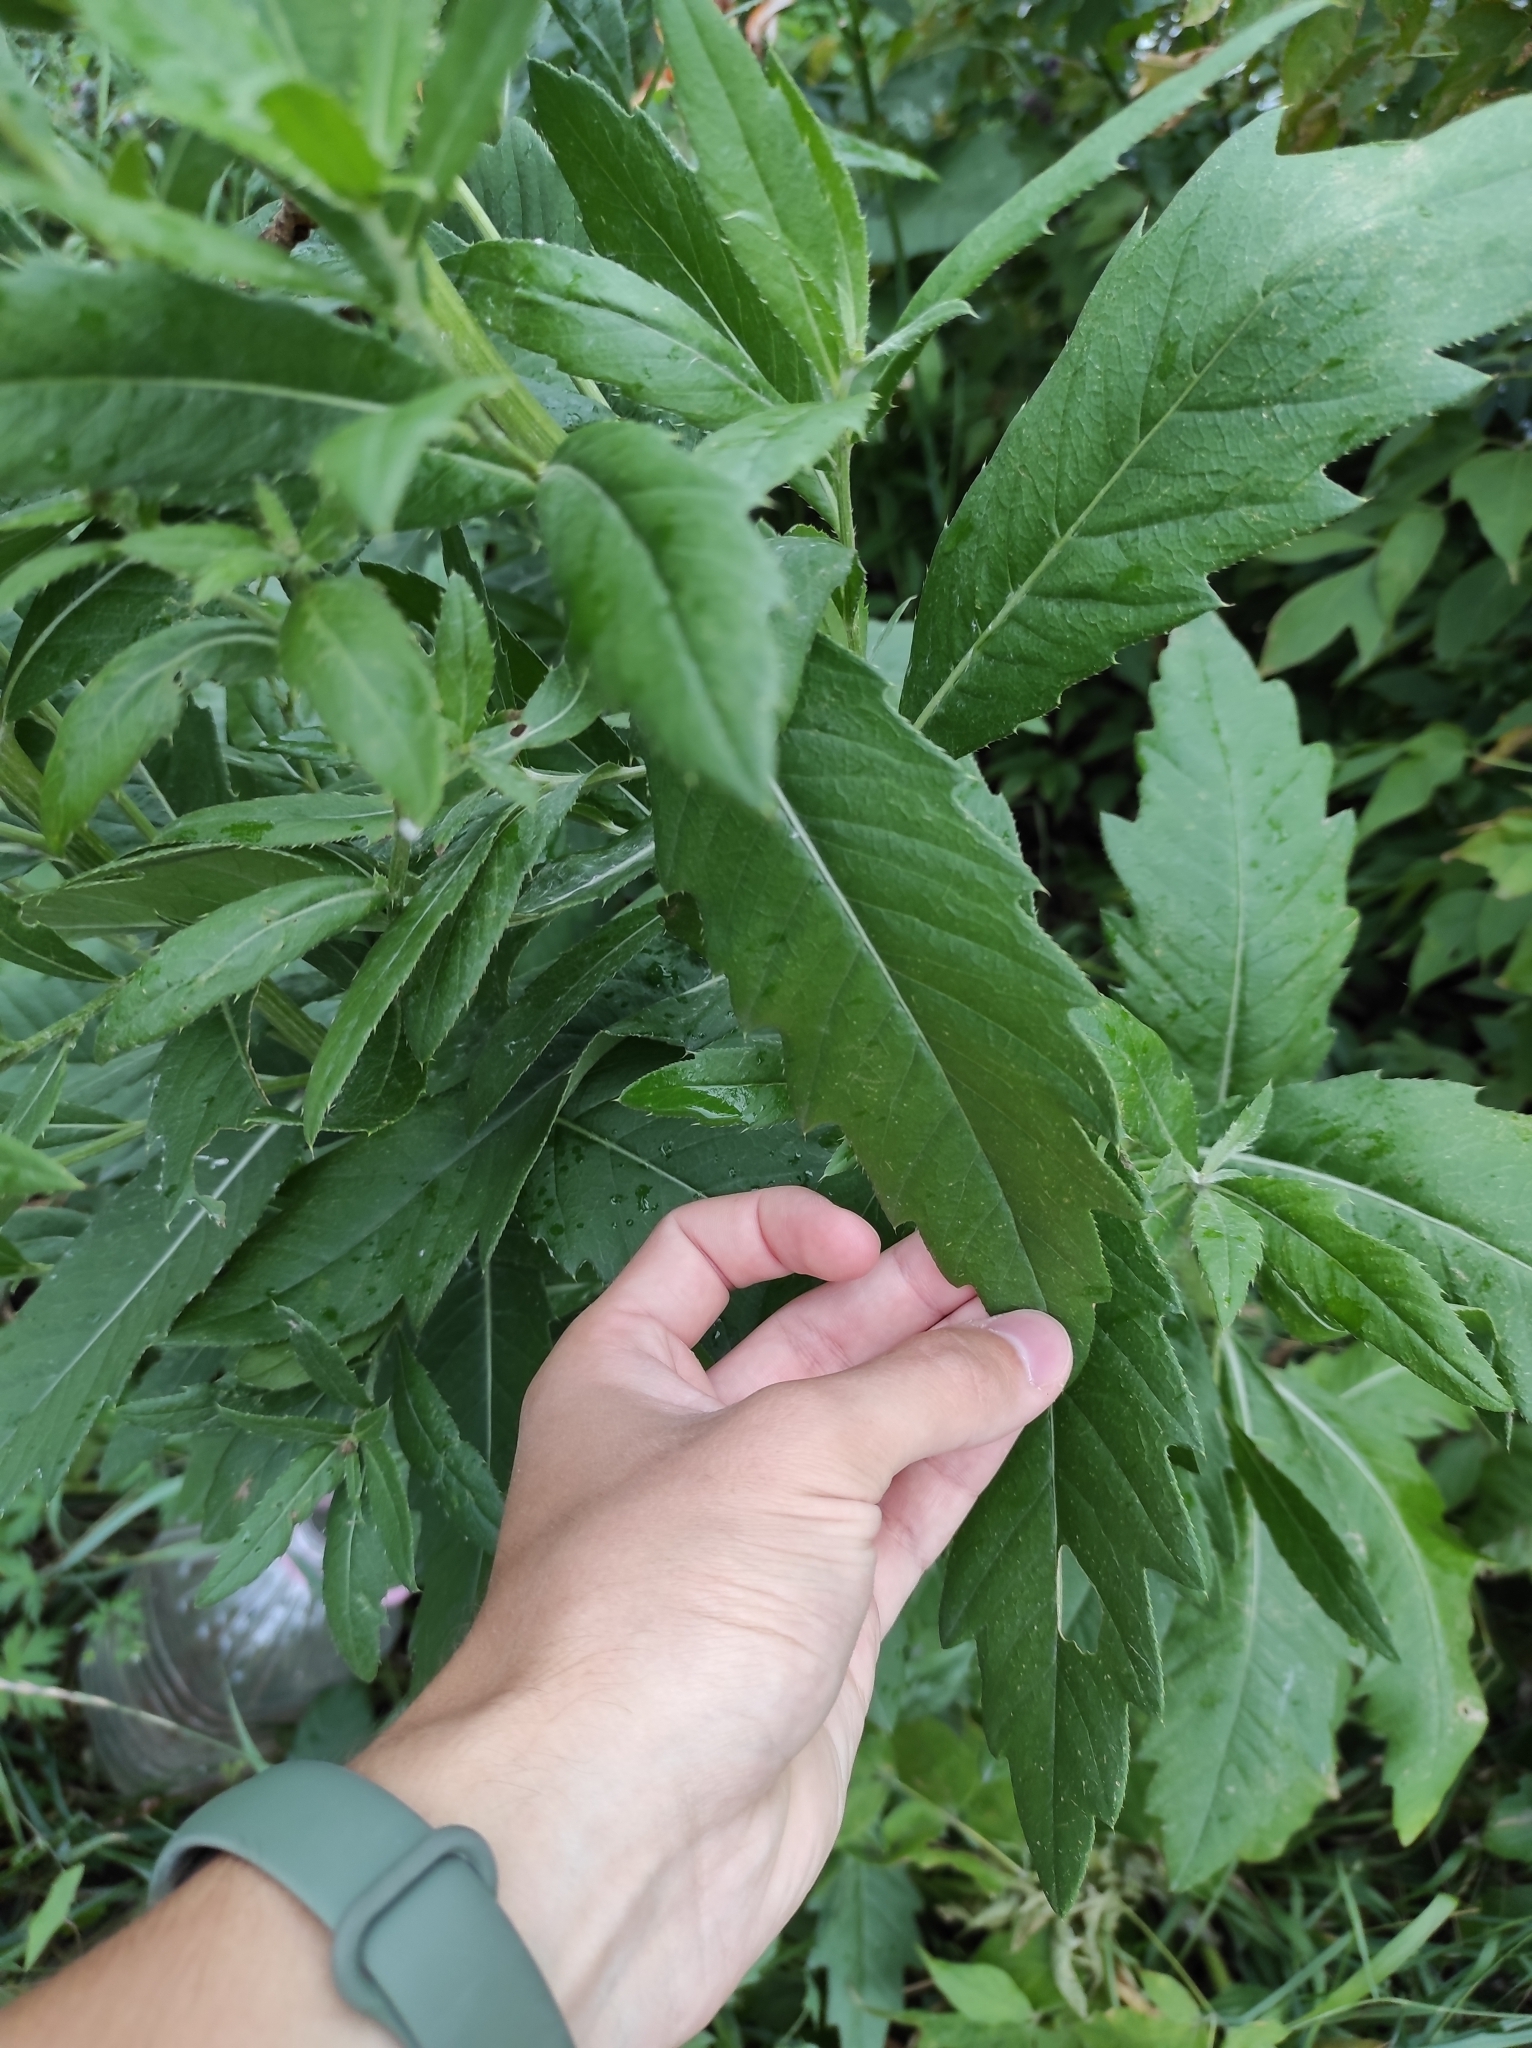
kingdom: Plantae
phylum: Tracheophyta
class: Magnoliopsida
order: Asterales
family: Asteraceae
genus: Cirsium
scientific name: Cirsium arvense
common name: Creeping thistle
